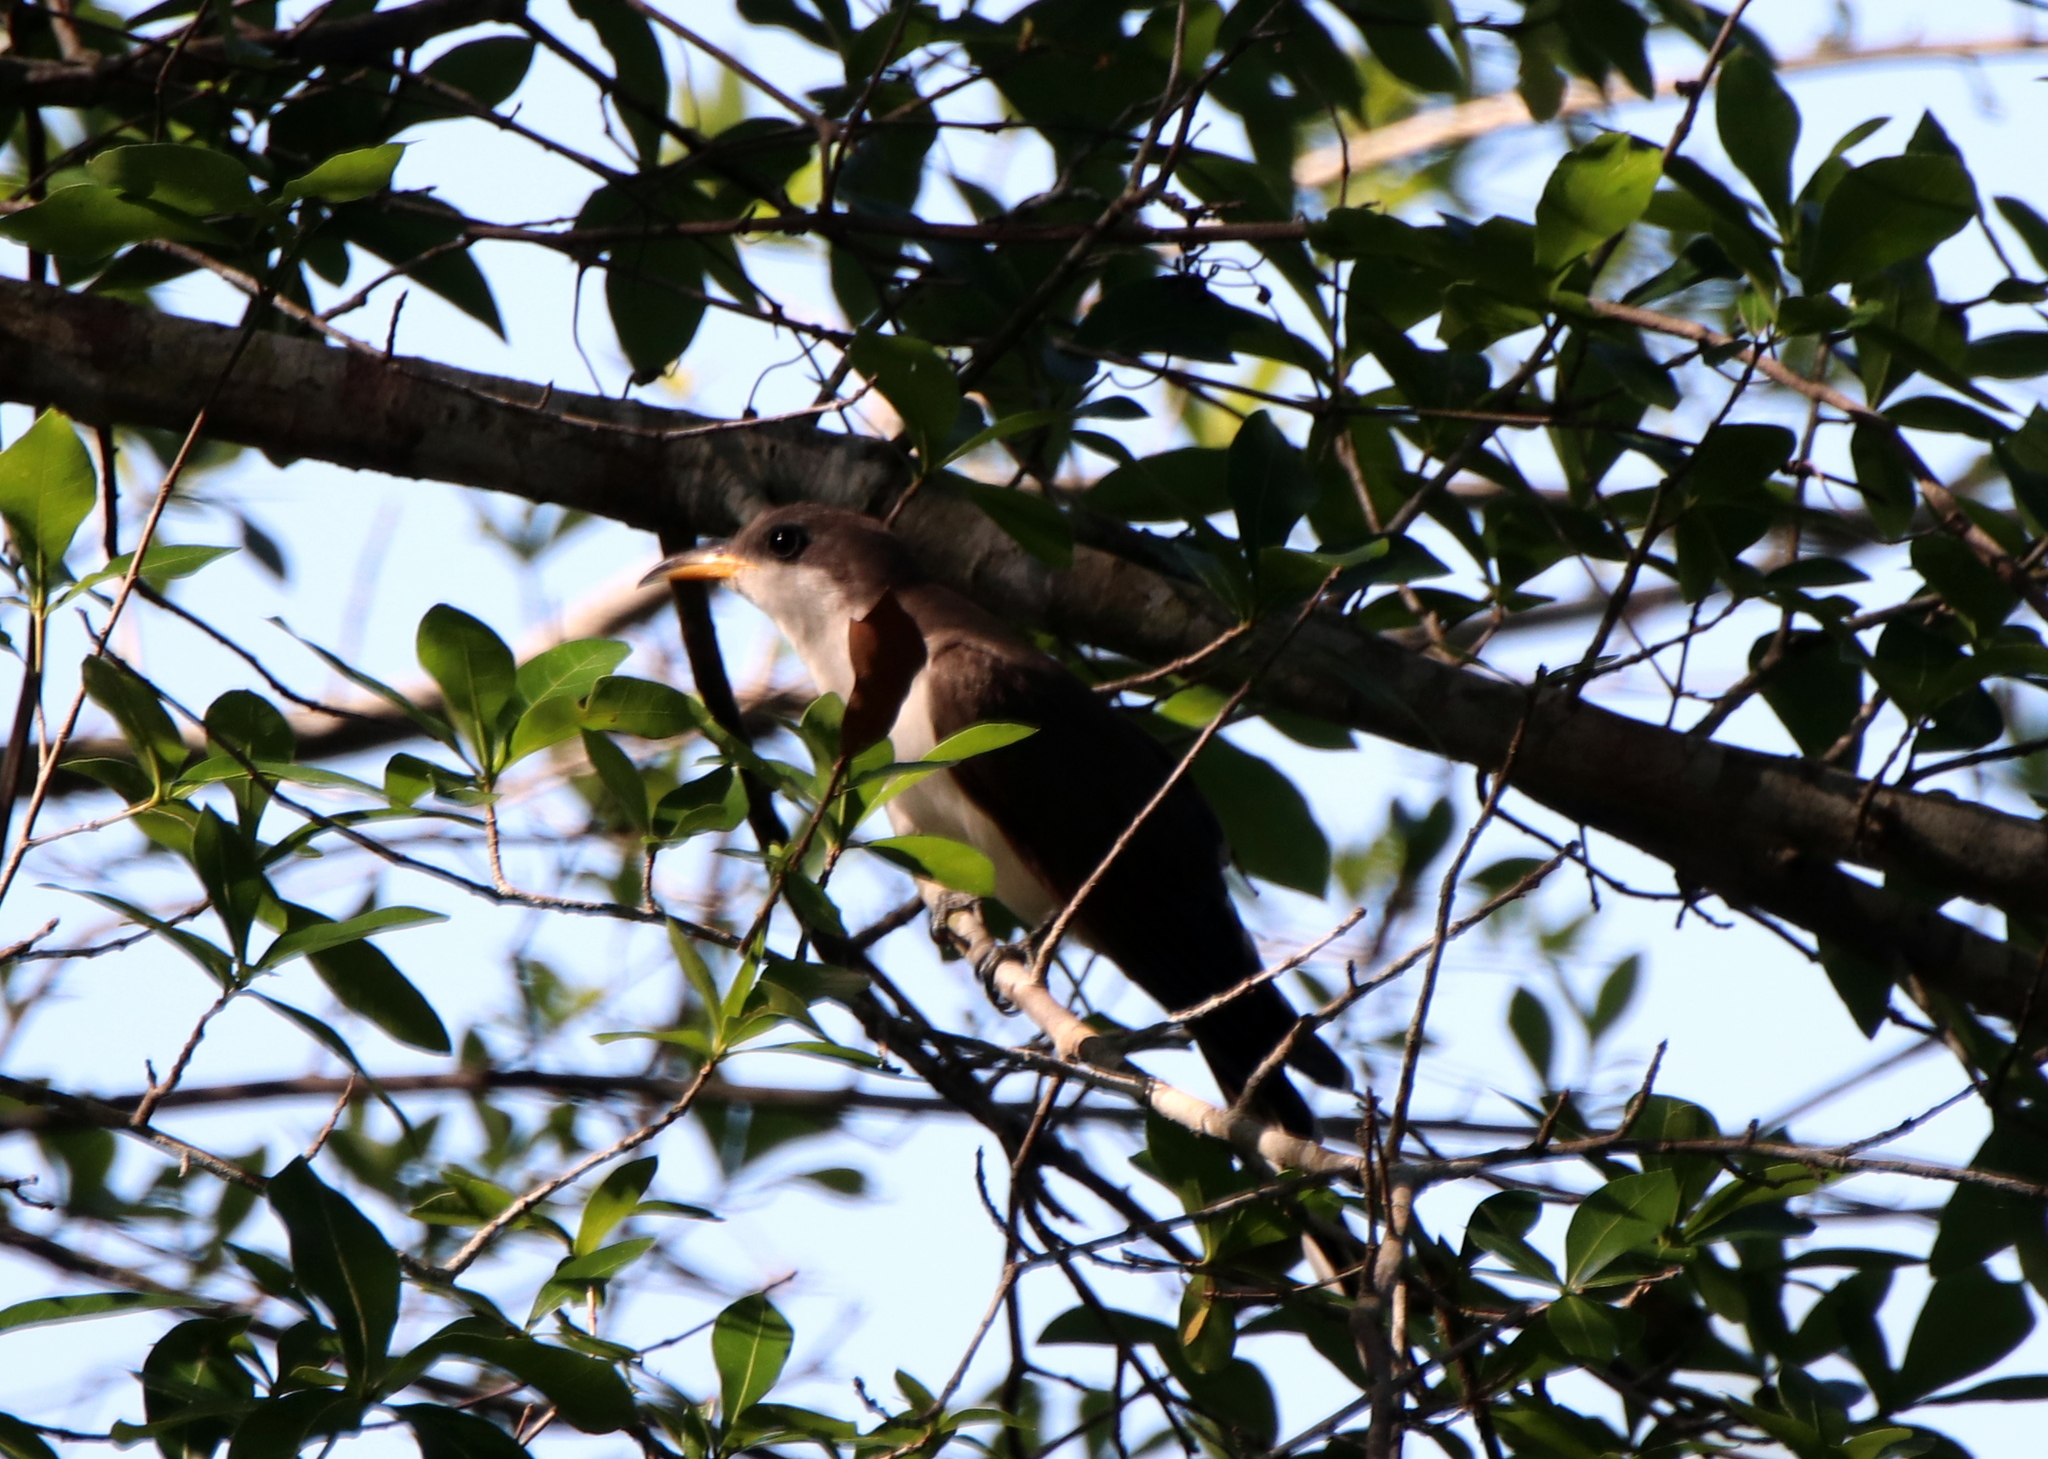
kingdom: Animalia
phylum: Chordata
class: Aves
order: Cuculiformes
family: Cuculidae
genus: Coccyzus
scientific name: Coccyzus americanus
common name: Yellow-billed cuckoo
